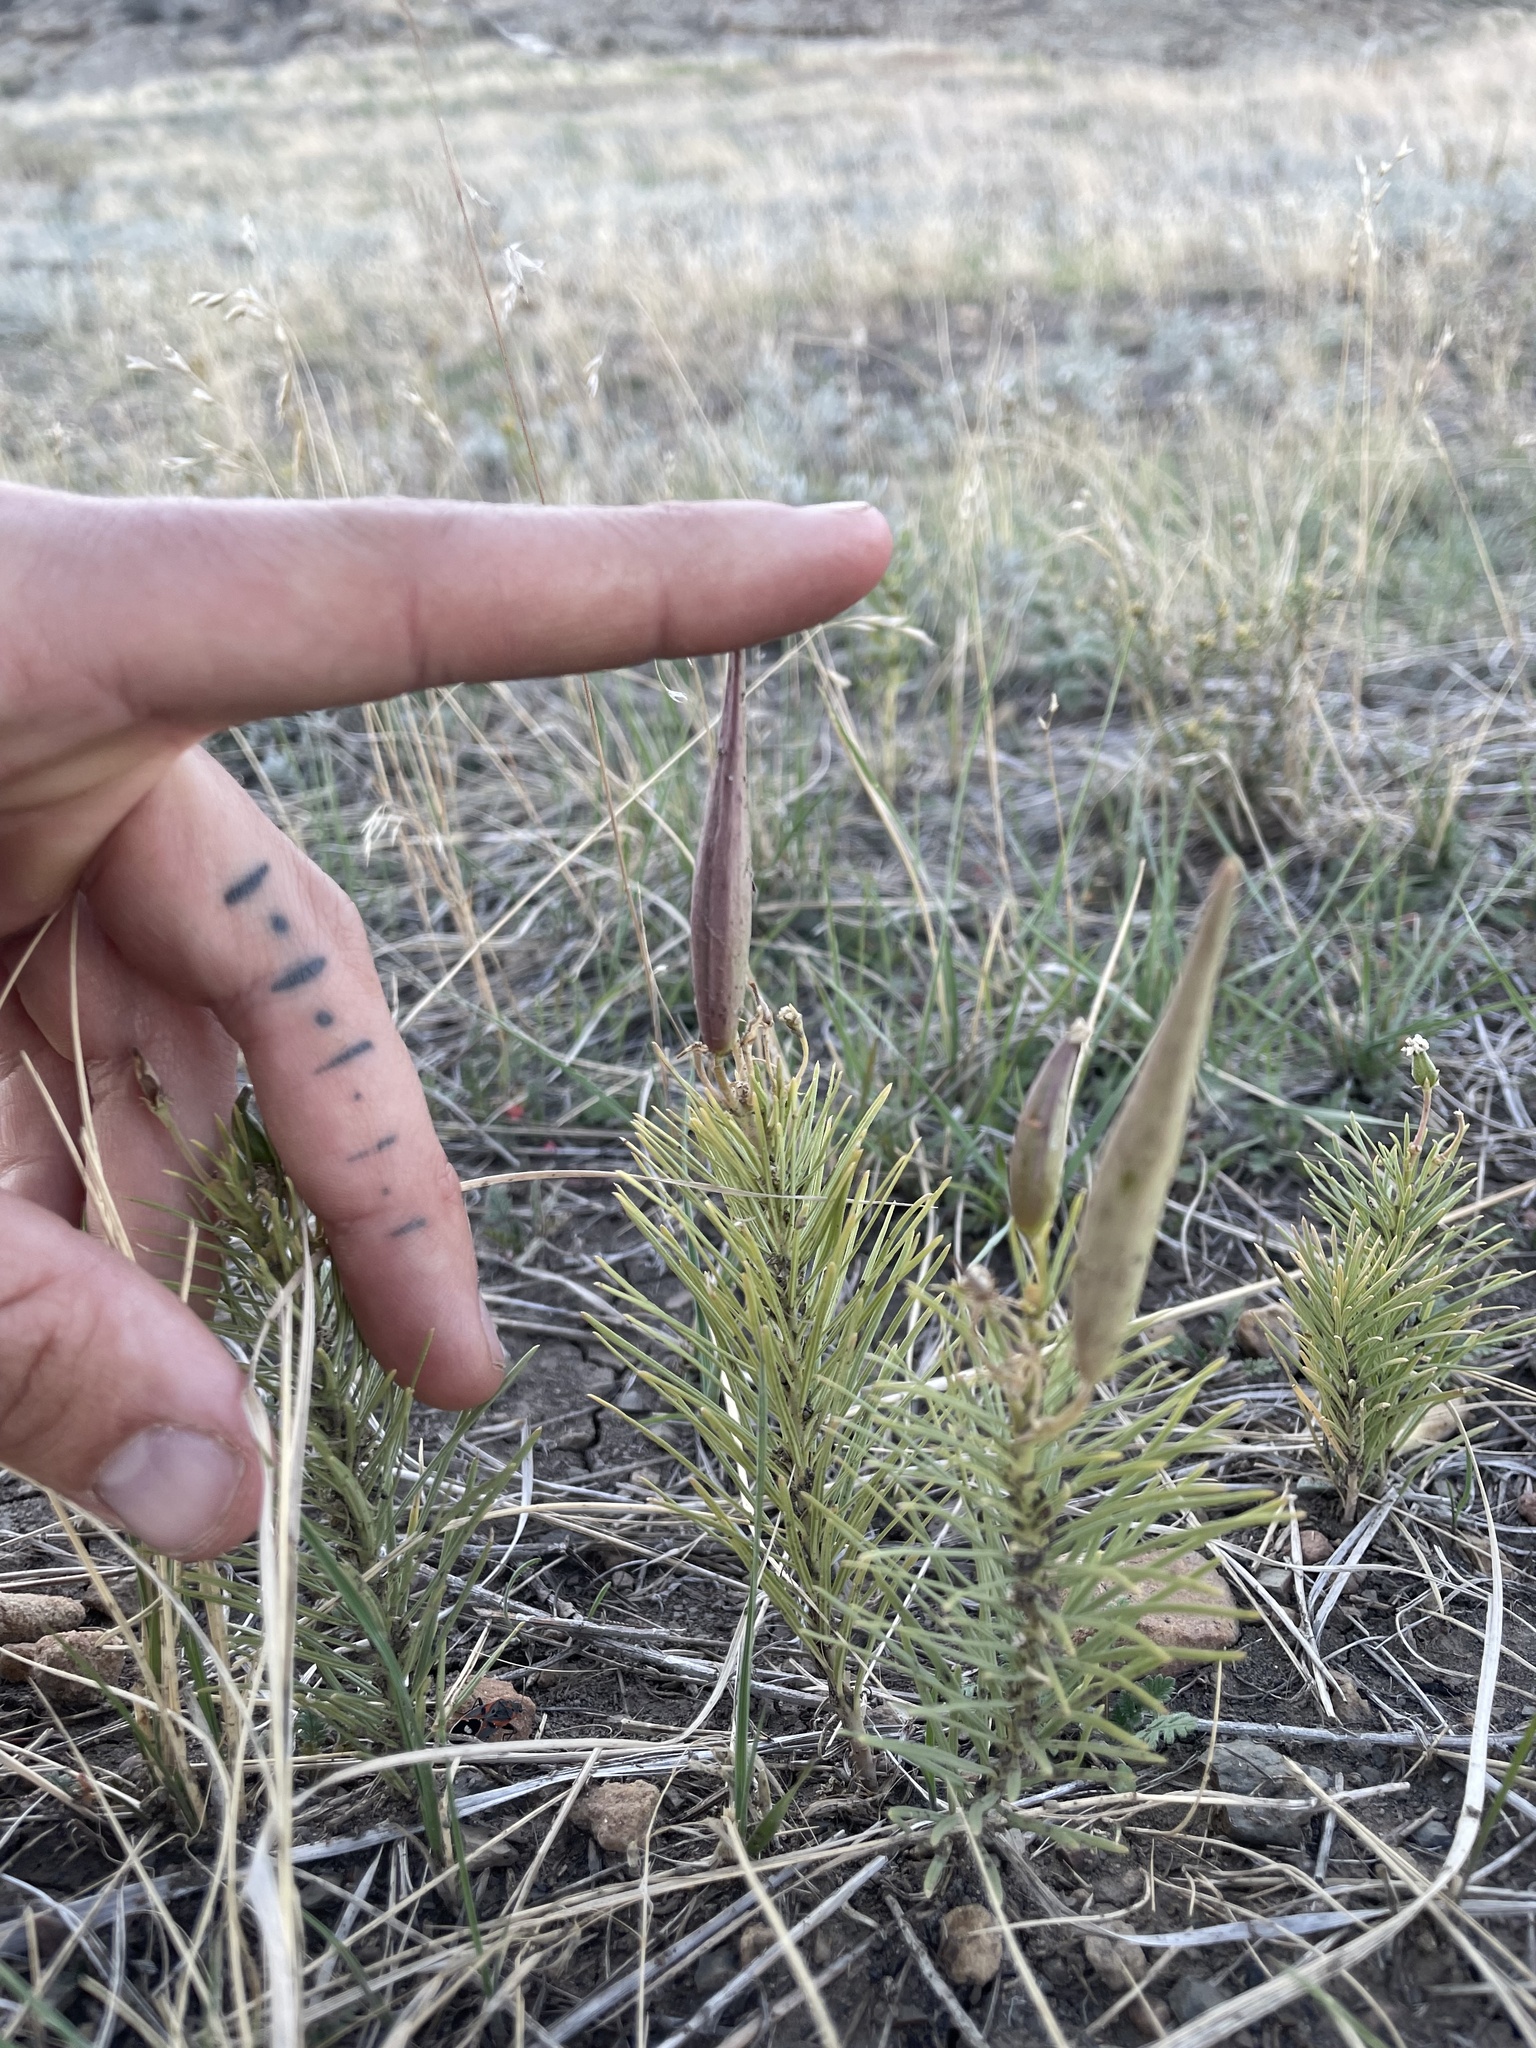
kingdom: Plantae
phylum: Tracheophyta
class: Magnoliopsida
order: Gentianales
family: Apocynaceae
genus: Asclepias
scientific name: Asclepias pumila
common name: Dwarf milkweed
